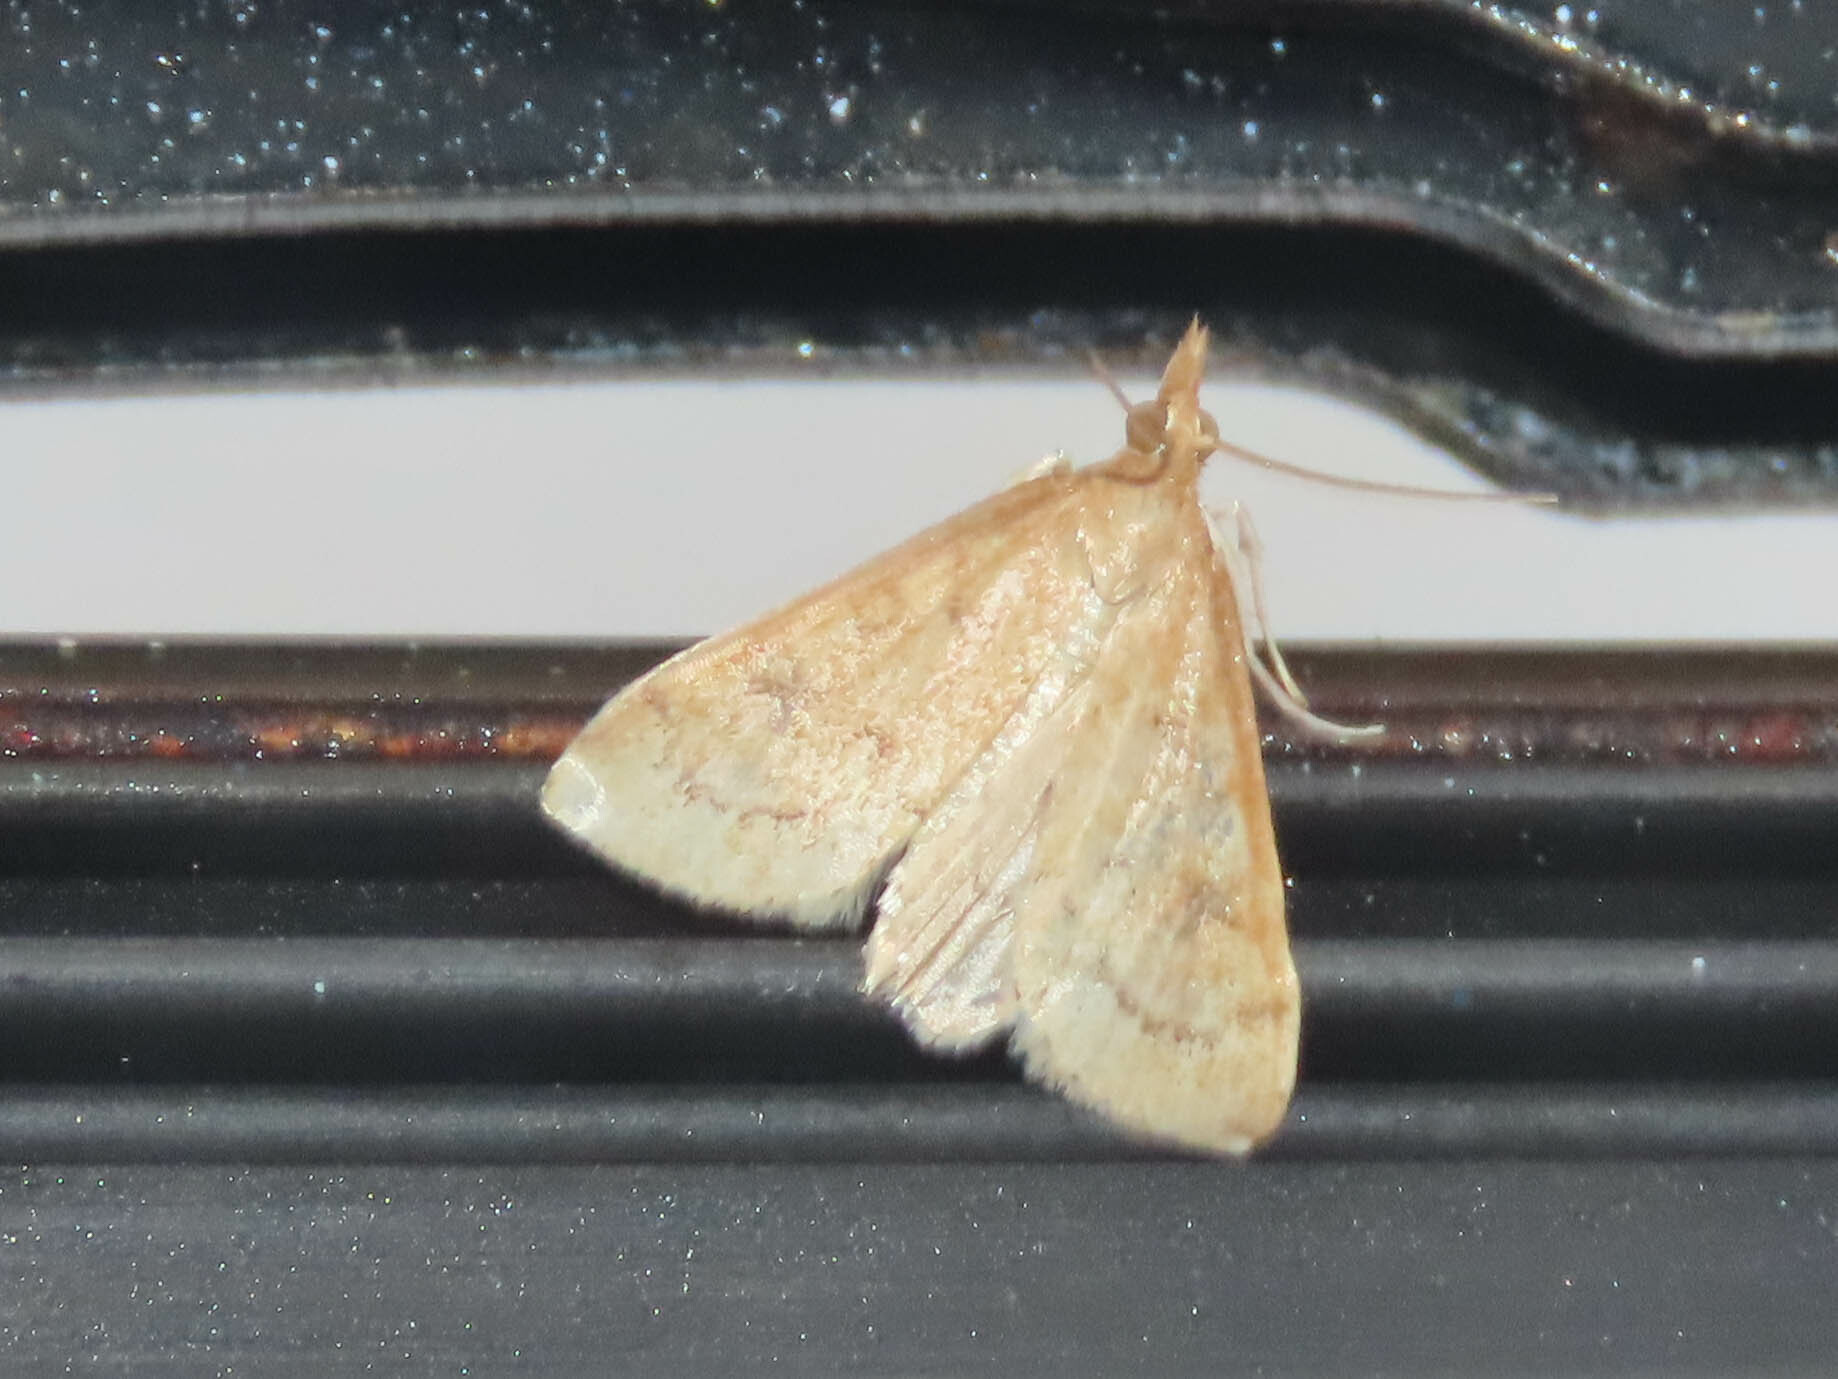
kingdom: Animalia
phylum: Arthropoda
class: Insecta
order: Lepidoptera
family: Crambidae
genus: Udea
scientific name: Udea rubigalis
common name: Celery leaftier moth
